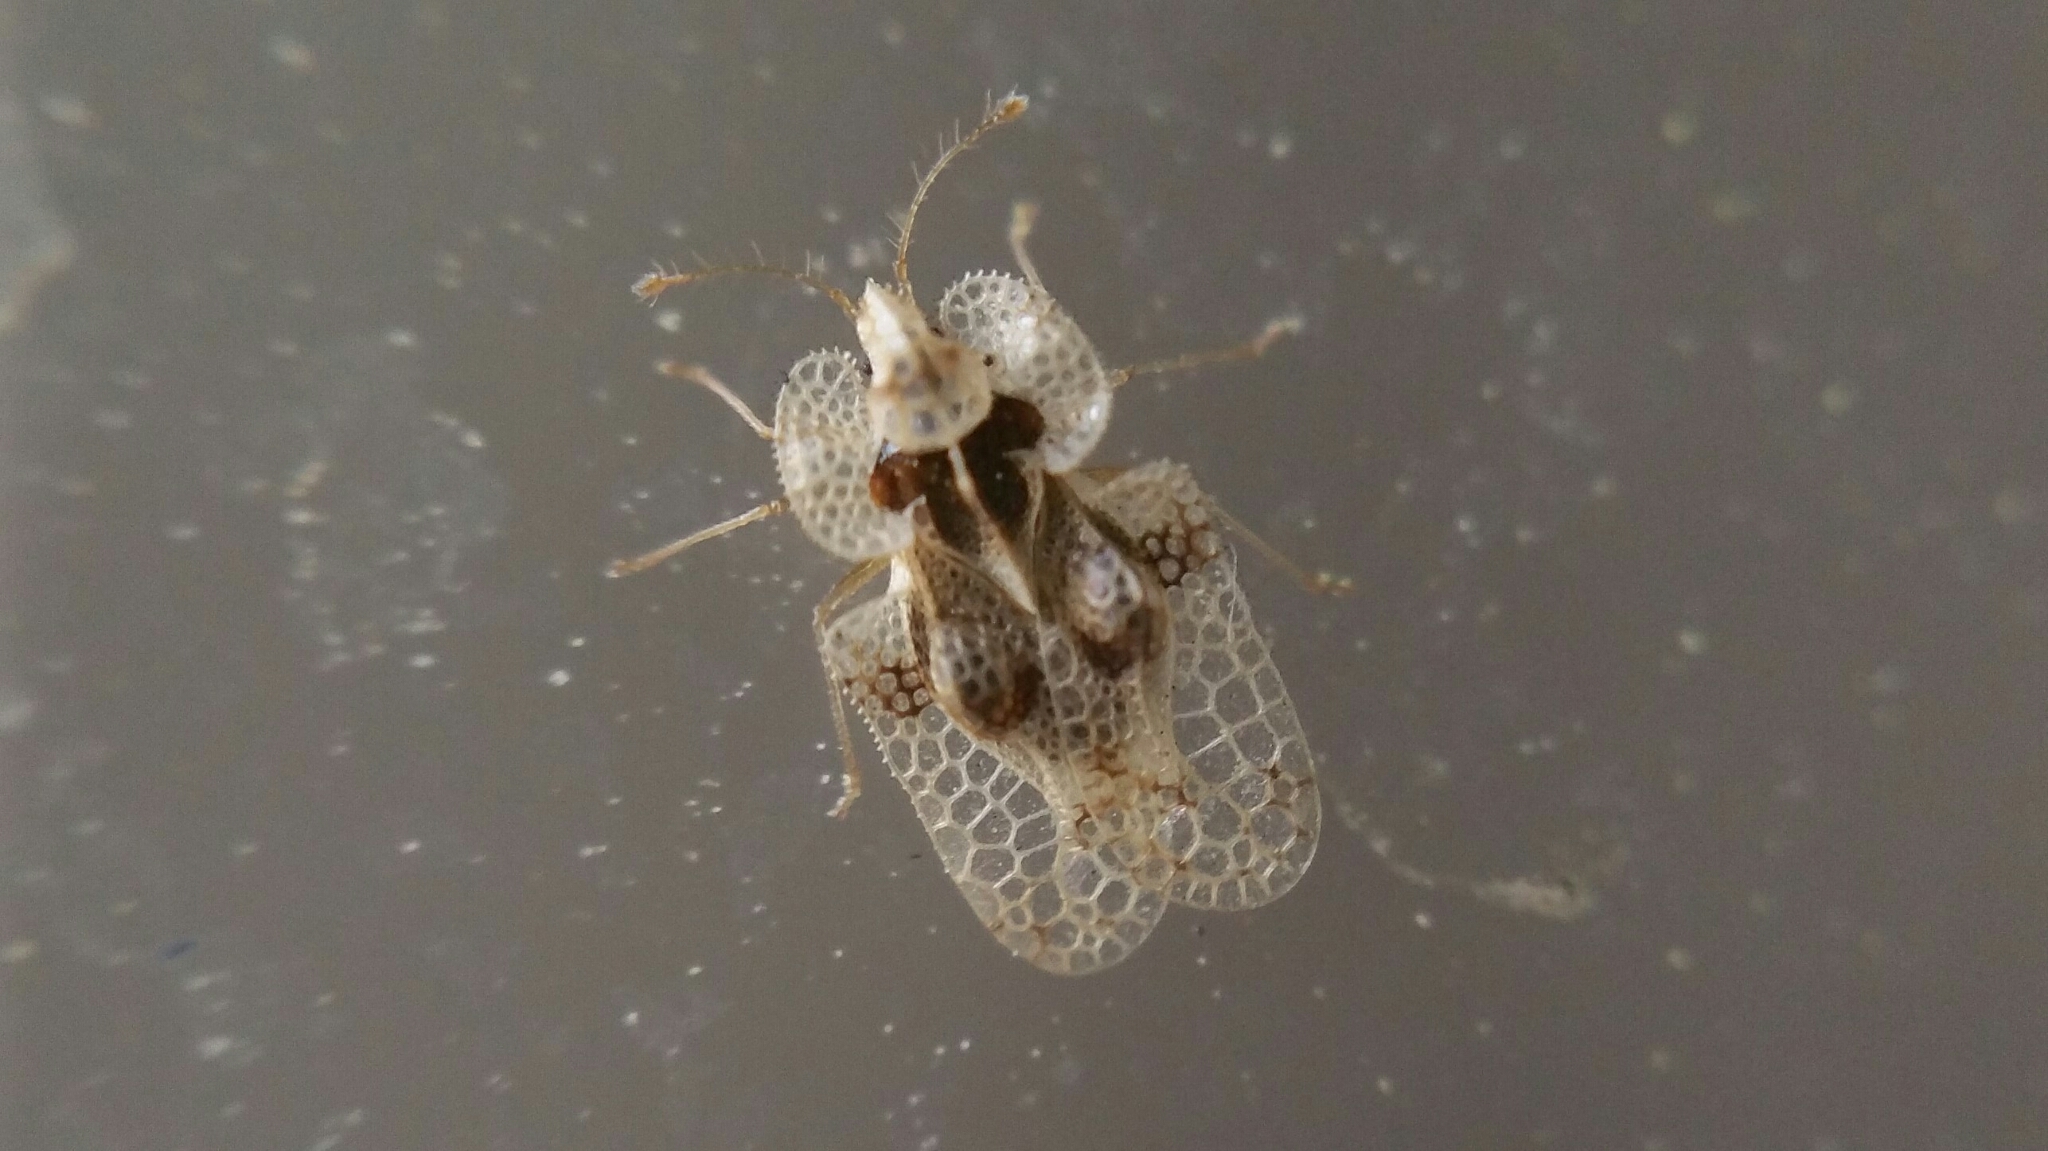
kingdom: Animalia
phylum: Arthropoda
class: Insecta
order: Hemiptera
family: Tingidae
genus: Corythucha
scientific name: Corythucha arcuata
